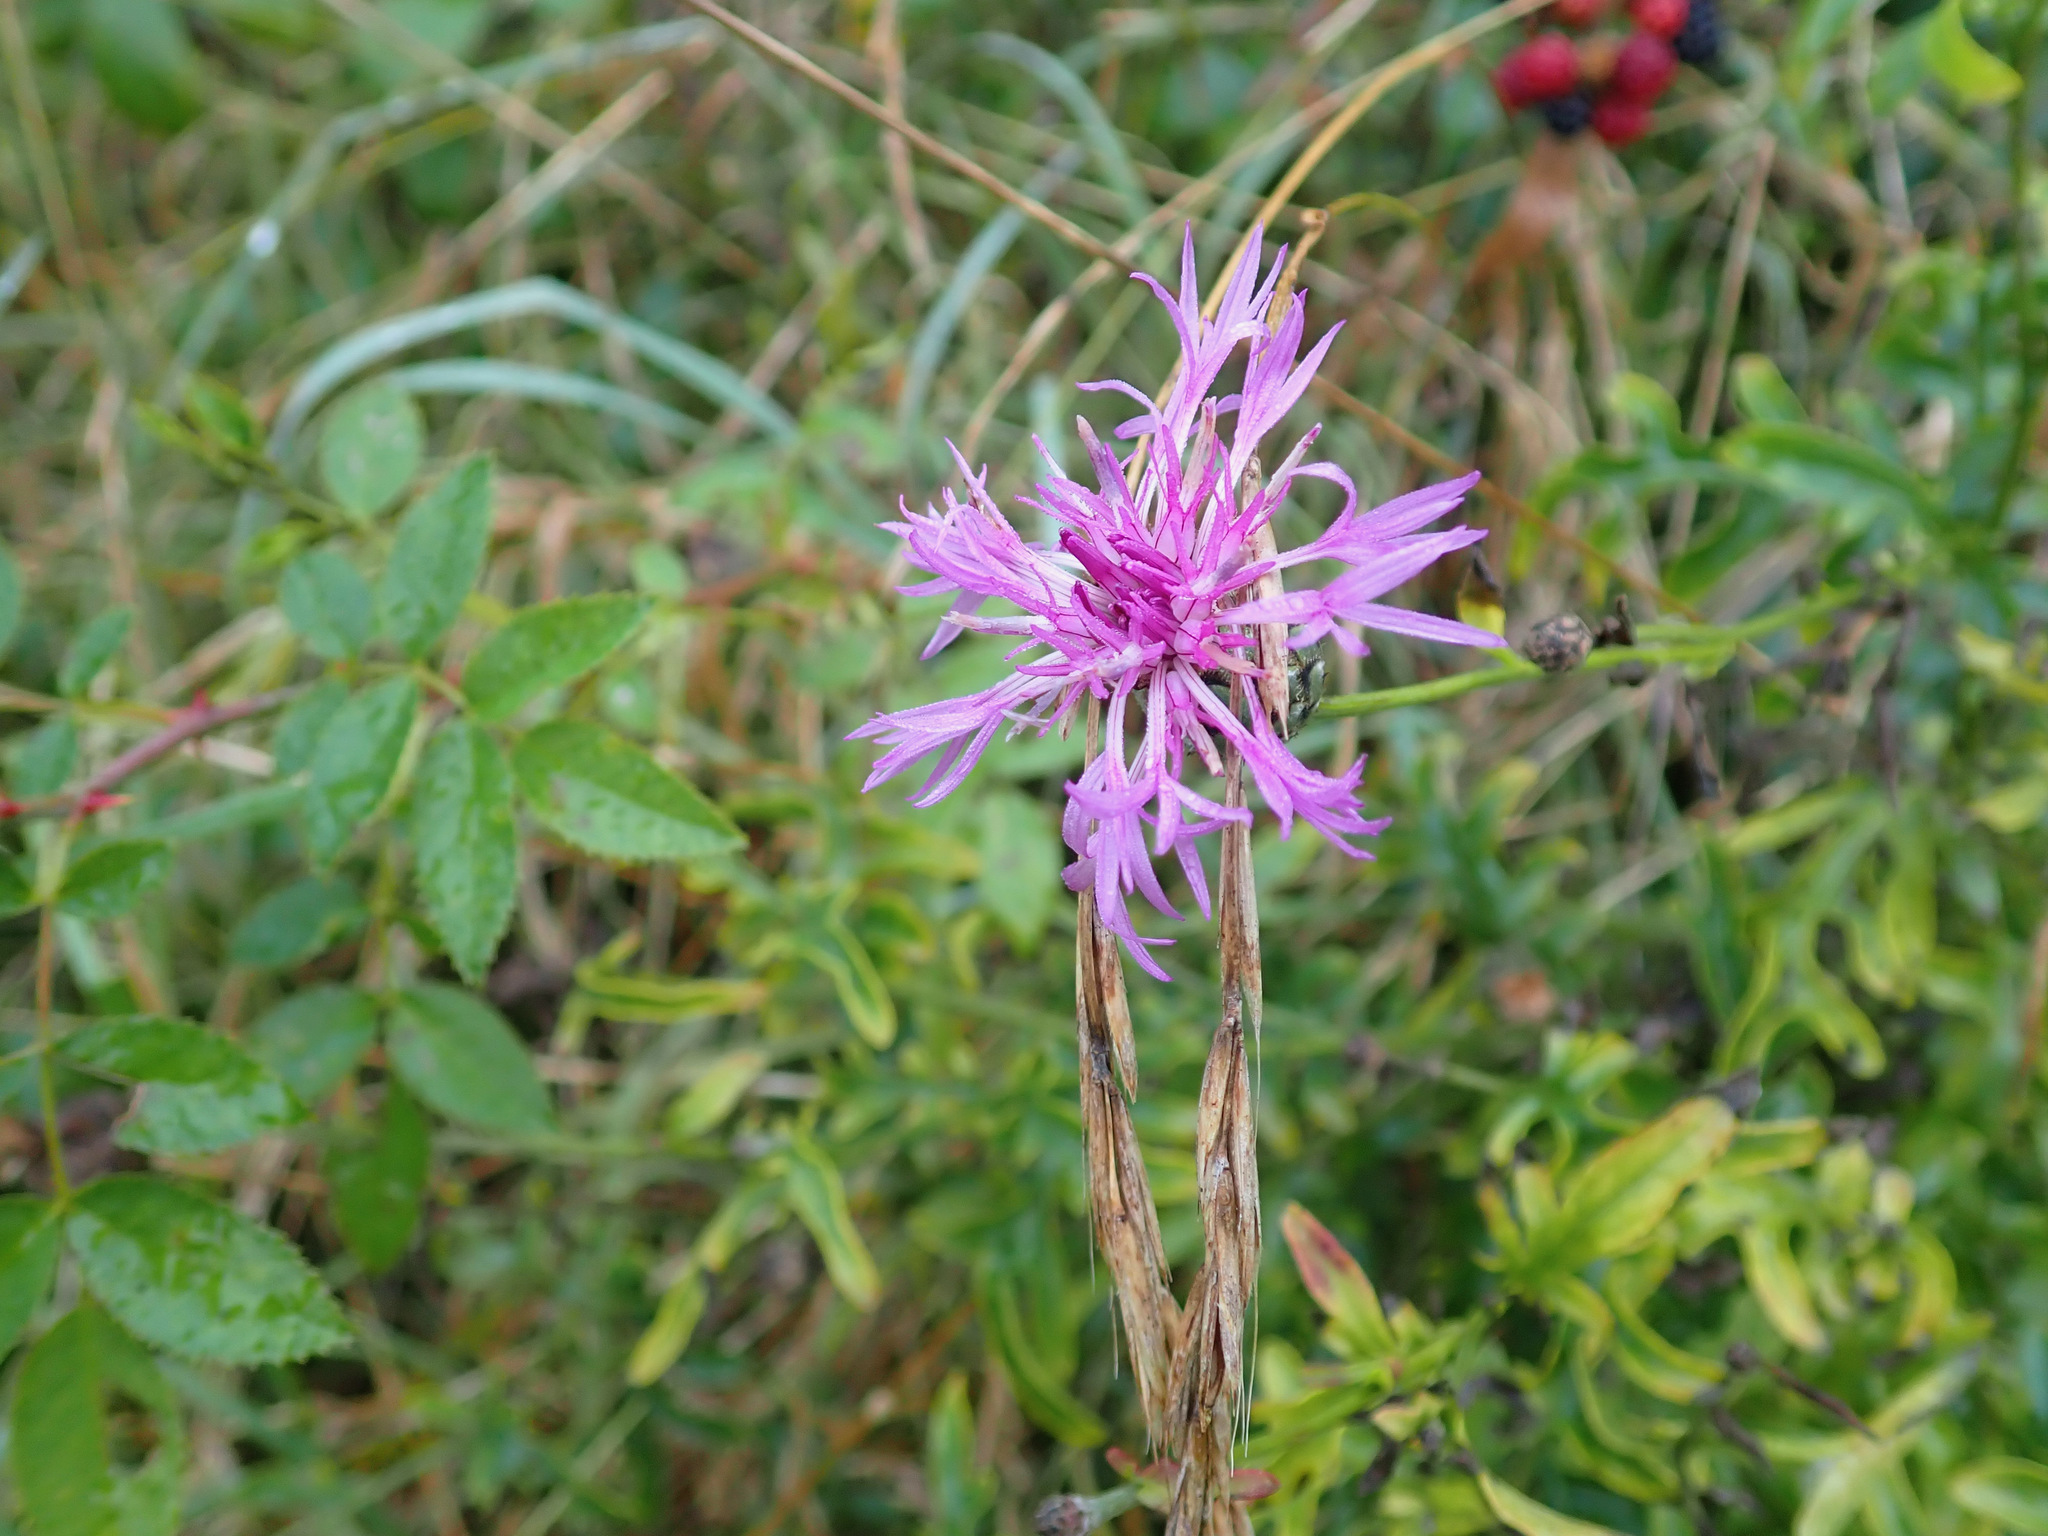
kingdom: Plantae
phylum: Tracheophyta
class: Magnoliopsida
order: Asterales
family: Asteraceae
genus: Centaurea
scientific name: Centaurea scabiosa
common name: Greater knapweed
